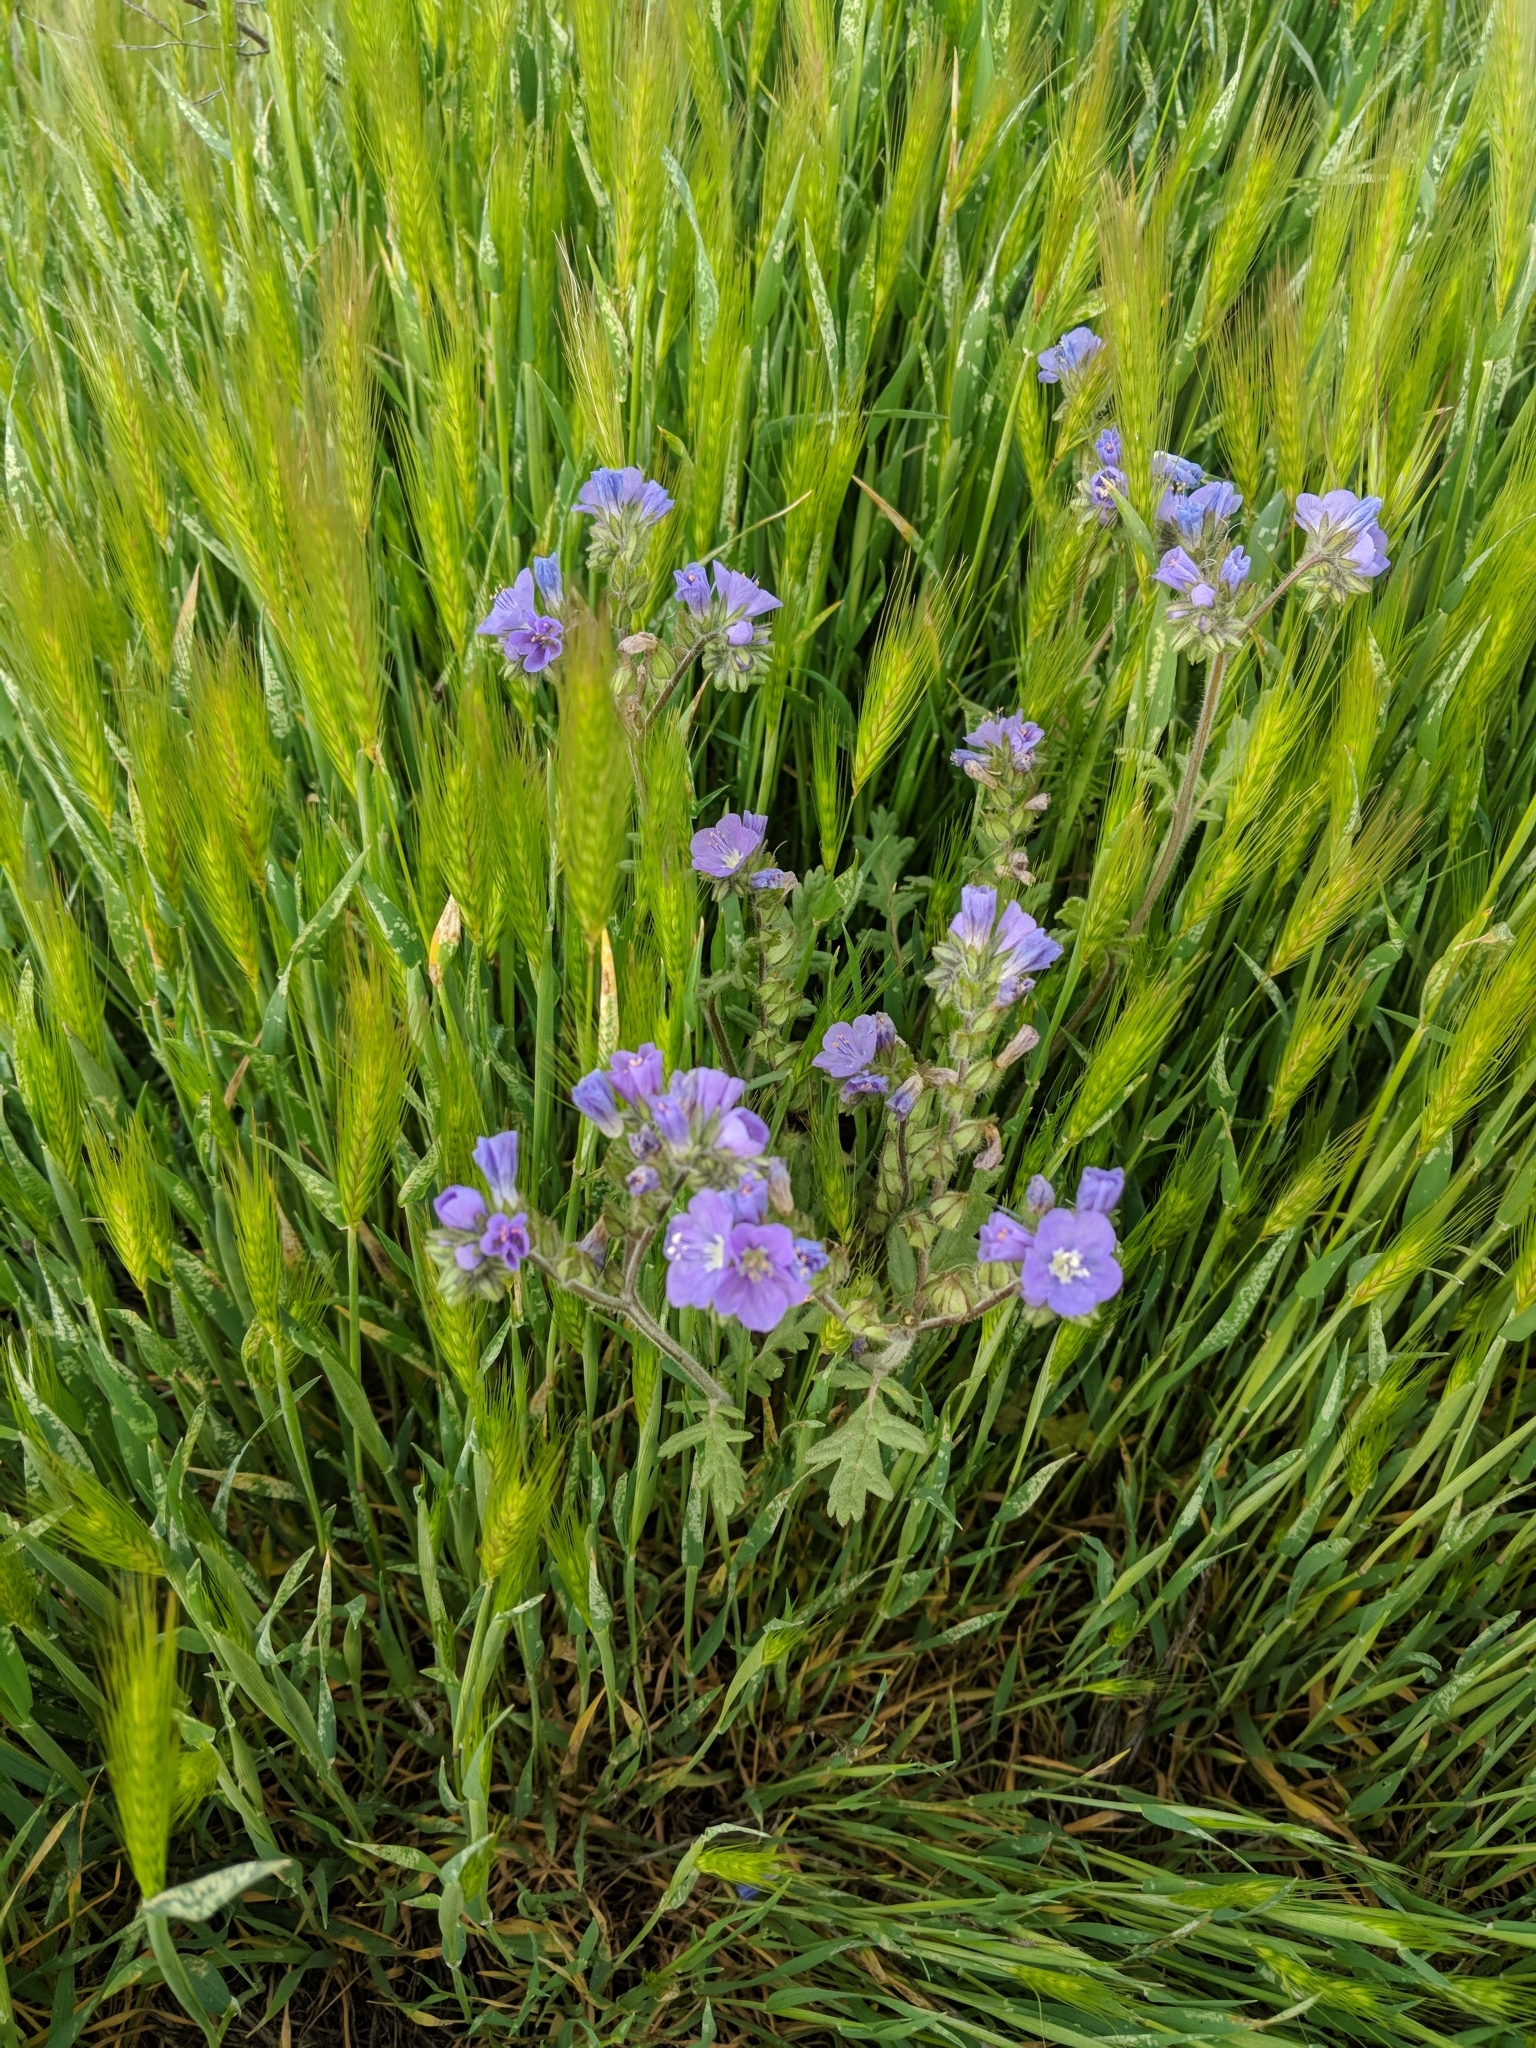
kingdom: Plantae
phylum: Tracheophyta
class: Magnoliopsida
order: Boraginales
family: Hydrophyllaceae
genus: Phacelia
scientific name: Phacelia ciliata
